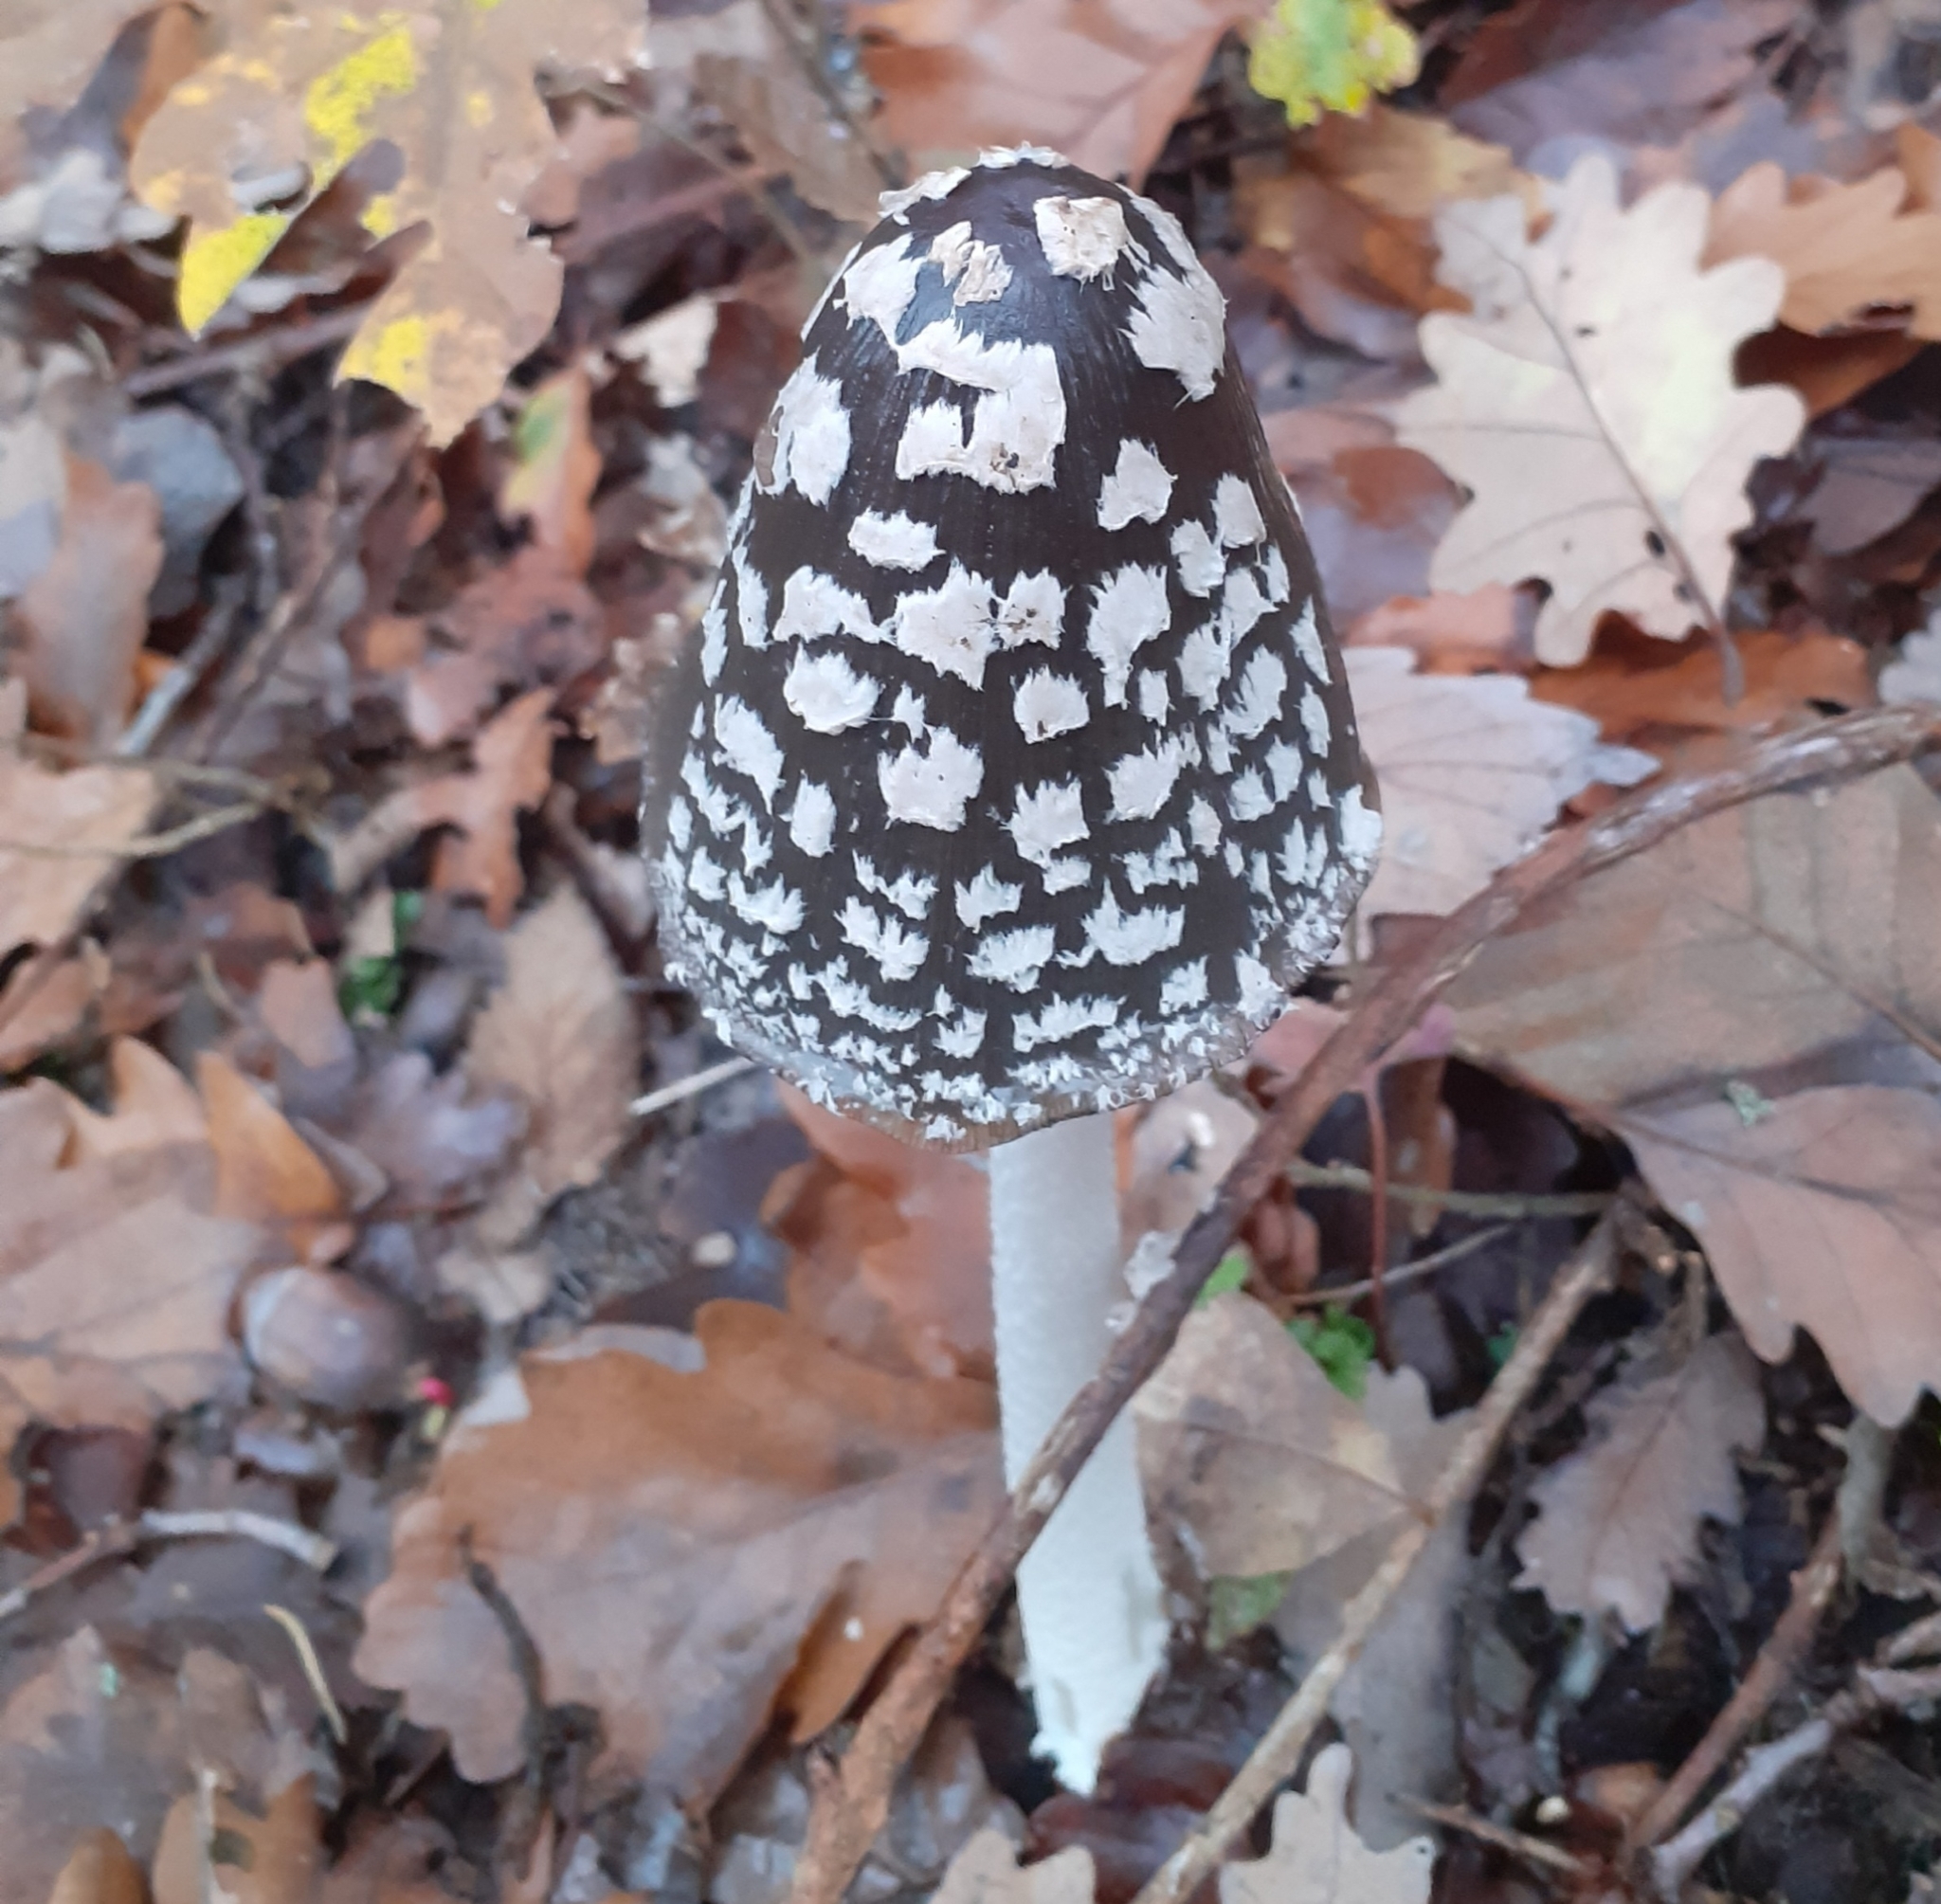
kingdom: Fungi
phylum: Basidiomycota
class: Agaricomycetes
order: Agaricales
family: Psathyrellaceae
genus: Coprinopsis
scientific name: Coprinopsis picacea
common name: Magpie inkcap
